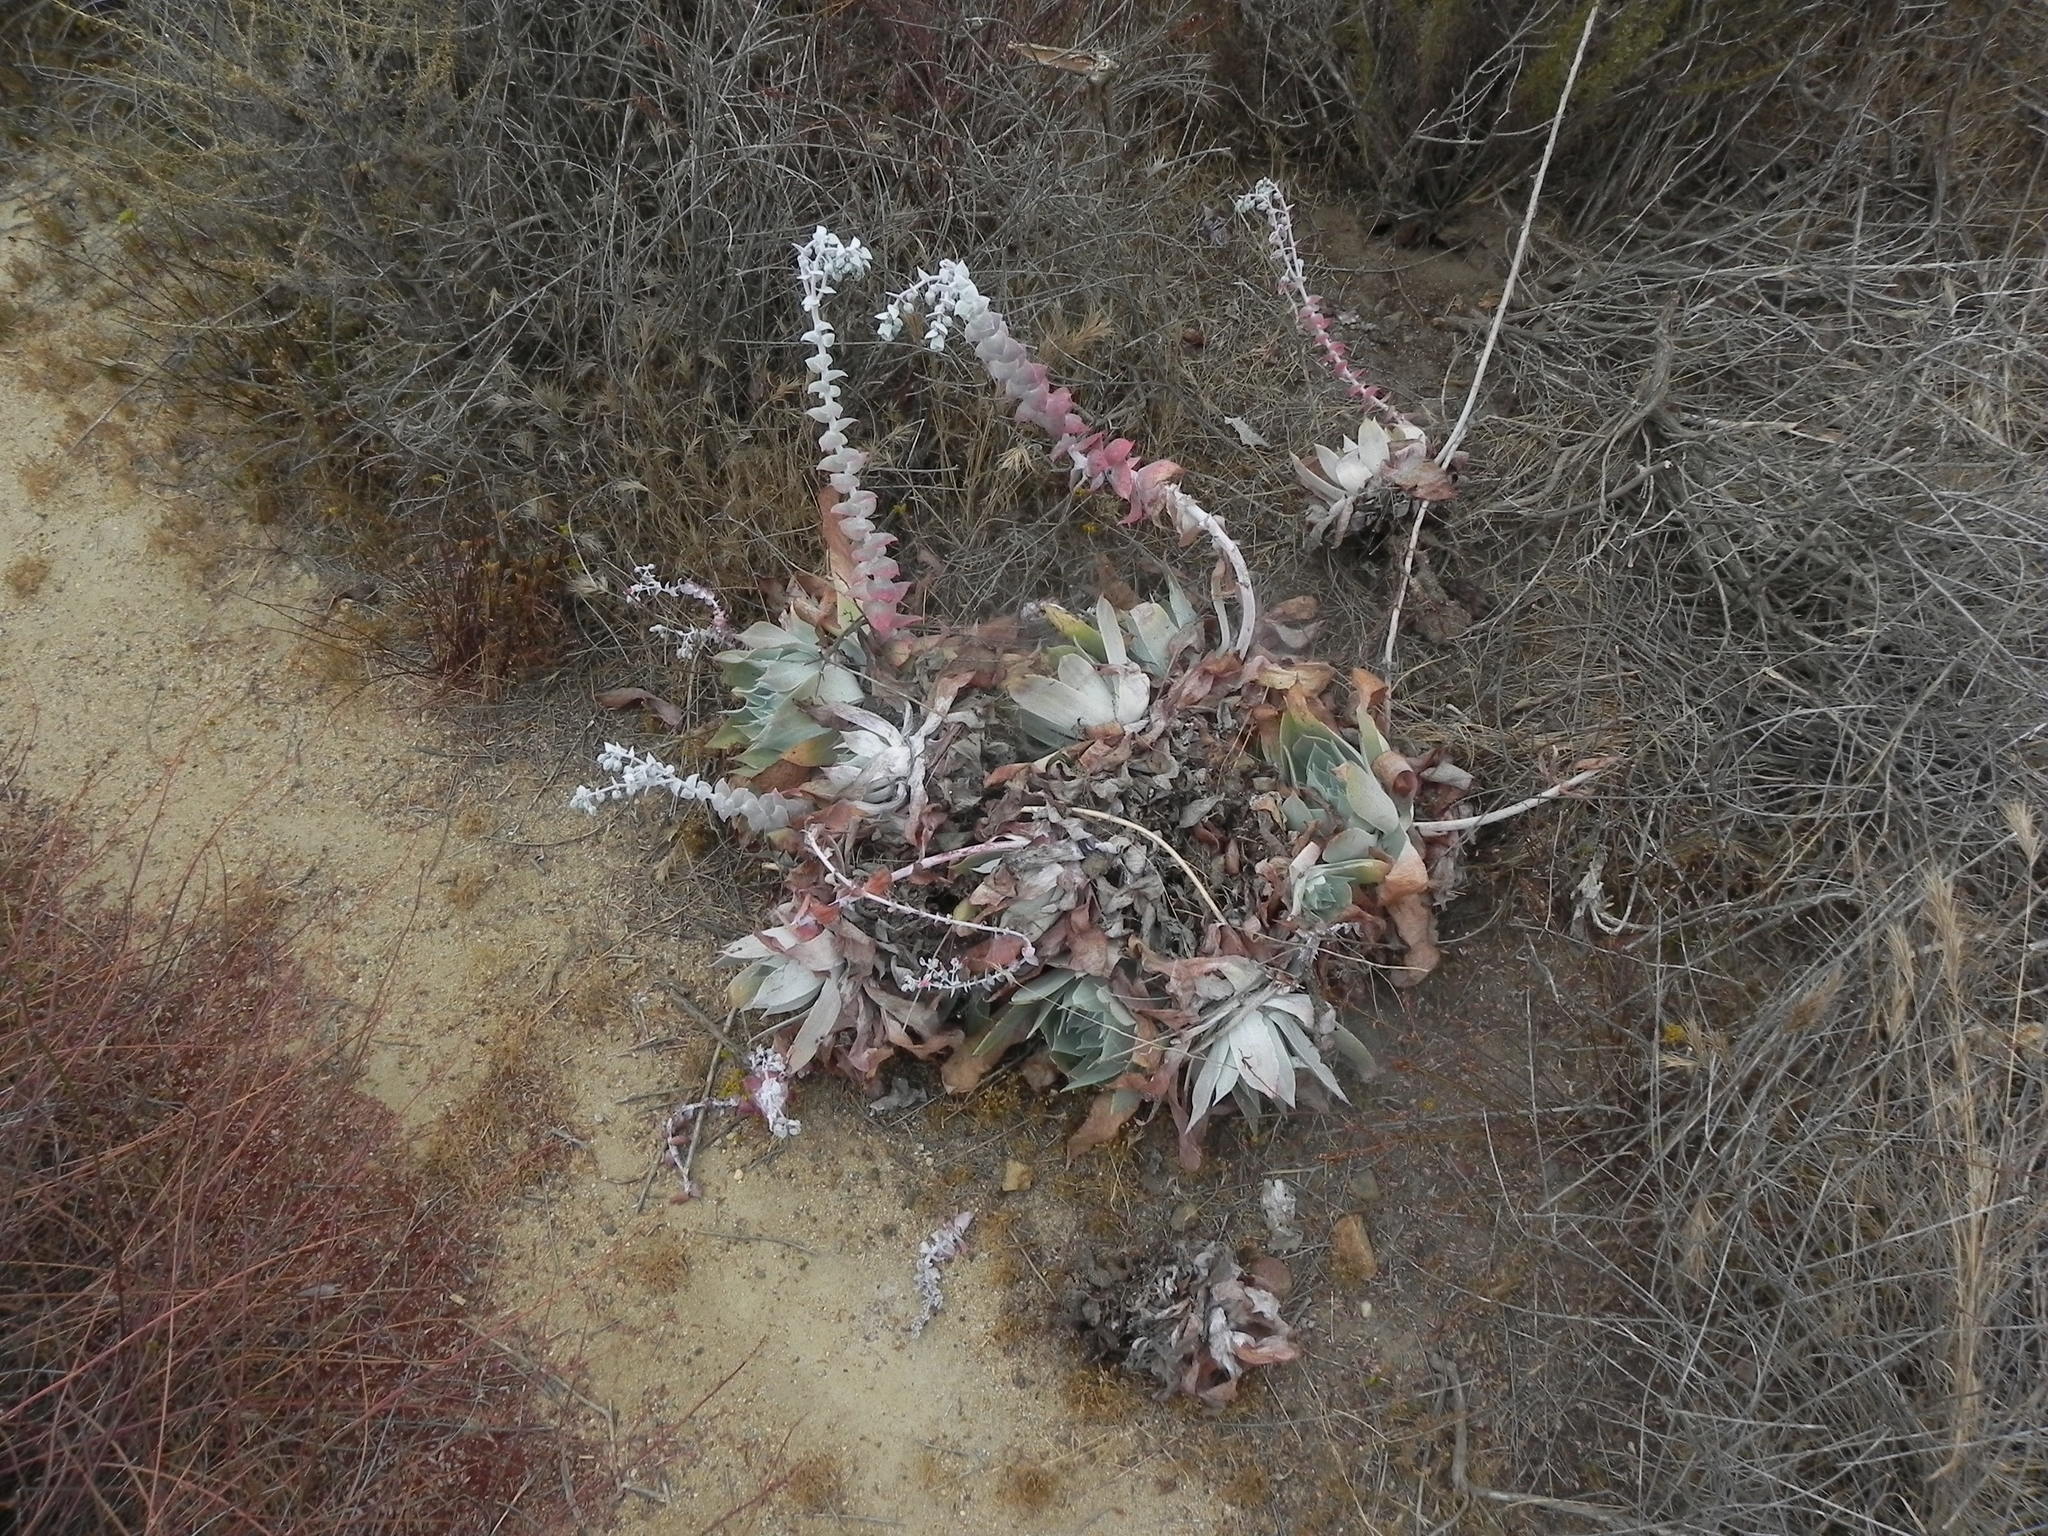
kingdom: Plantae
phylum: Tracheophyta
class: Magnoliopsida
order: Saxifragales
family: Crassulaceae
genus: Dudleya
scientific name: Dudleya pulverulenta
